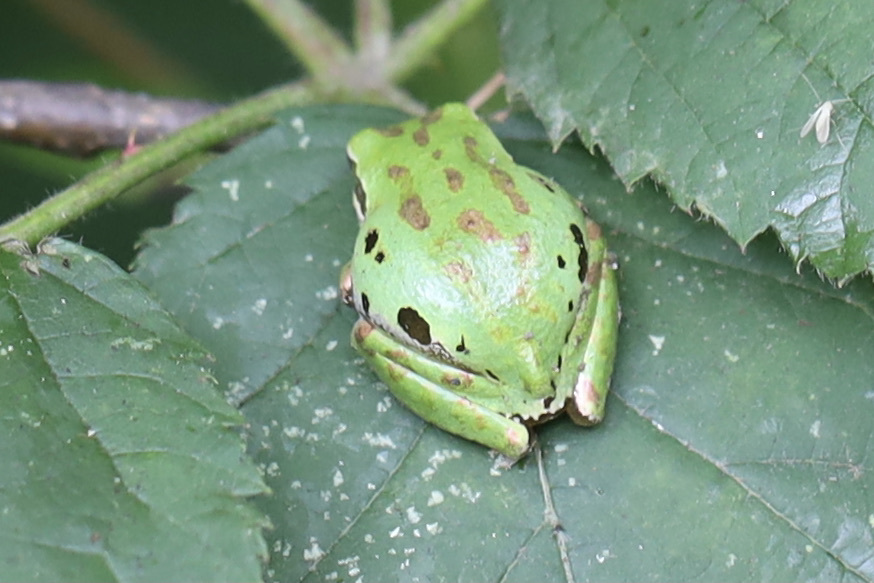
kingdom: Animalia
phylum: Chordata
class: Amphibia
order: Anura
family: Hylidae
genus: Pseudacris
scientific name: Pseudacris regilla
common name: Pacific chorus frog
